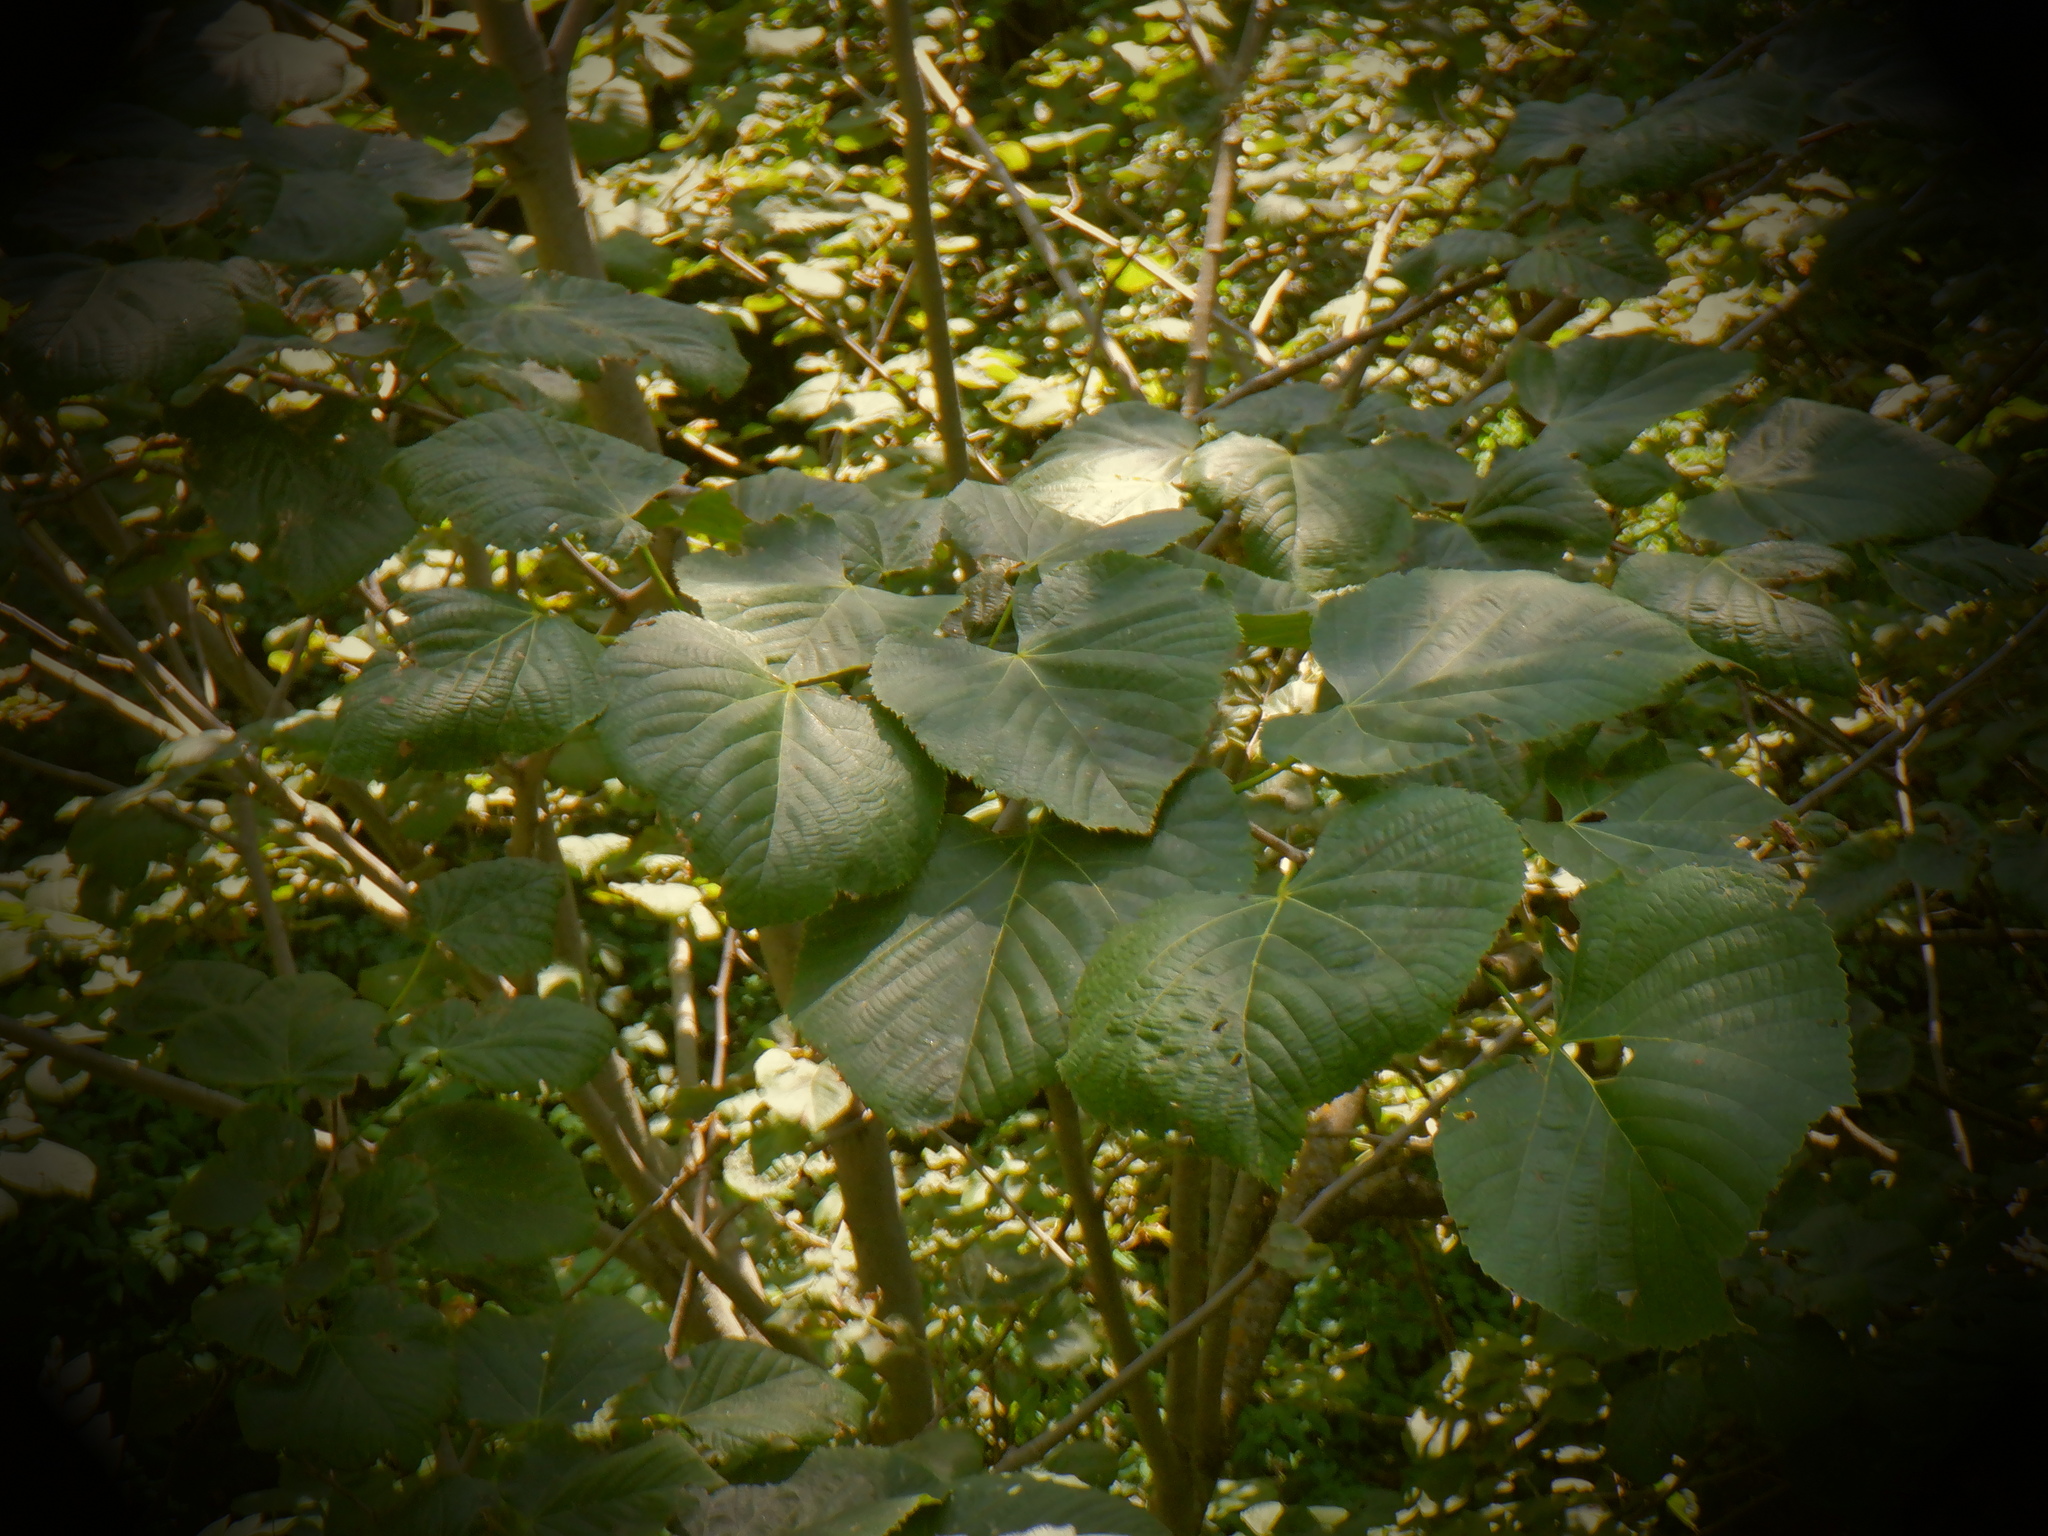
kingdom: Plantae
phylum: Tracheophyta
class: Magnoliopsida
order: Malvales
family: Malvaceae
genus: Tilia
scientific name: Tilia americana
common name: Basswood
